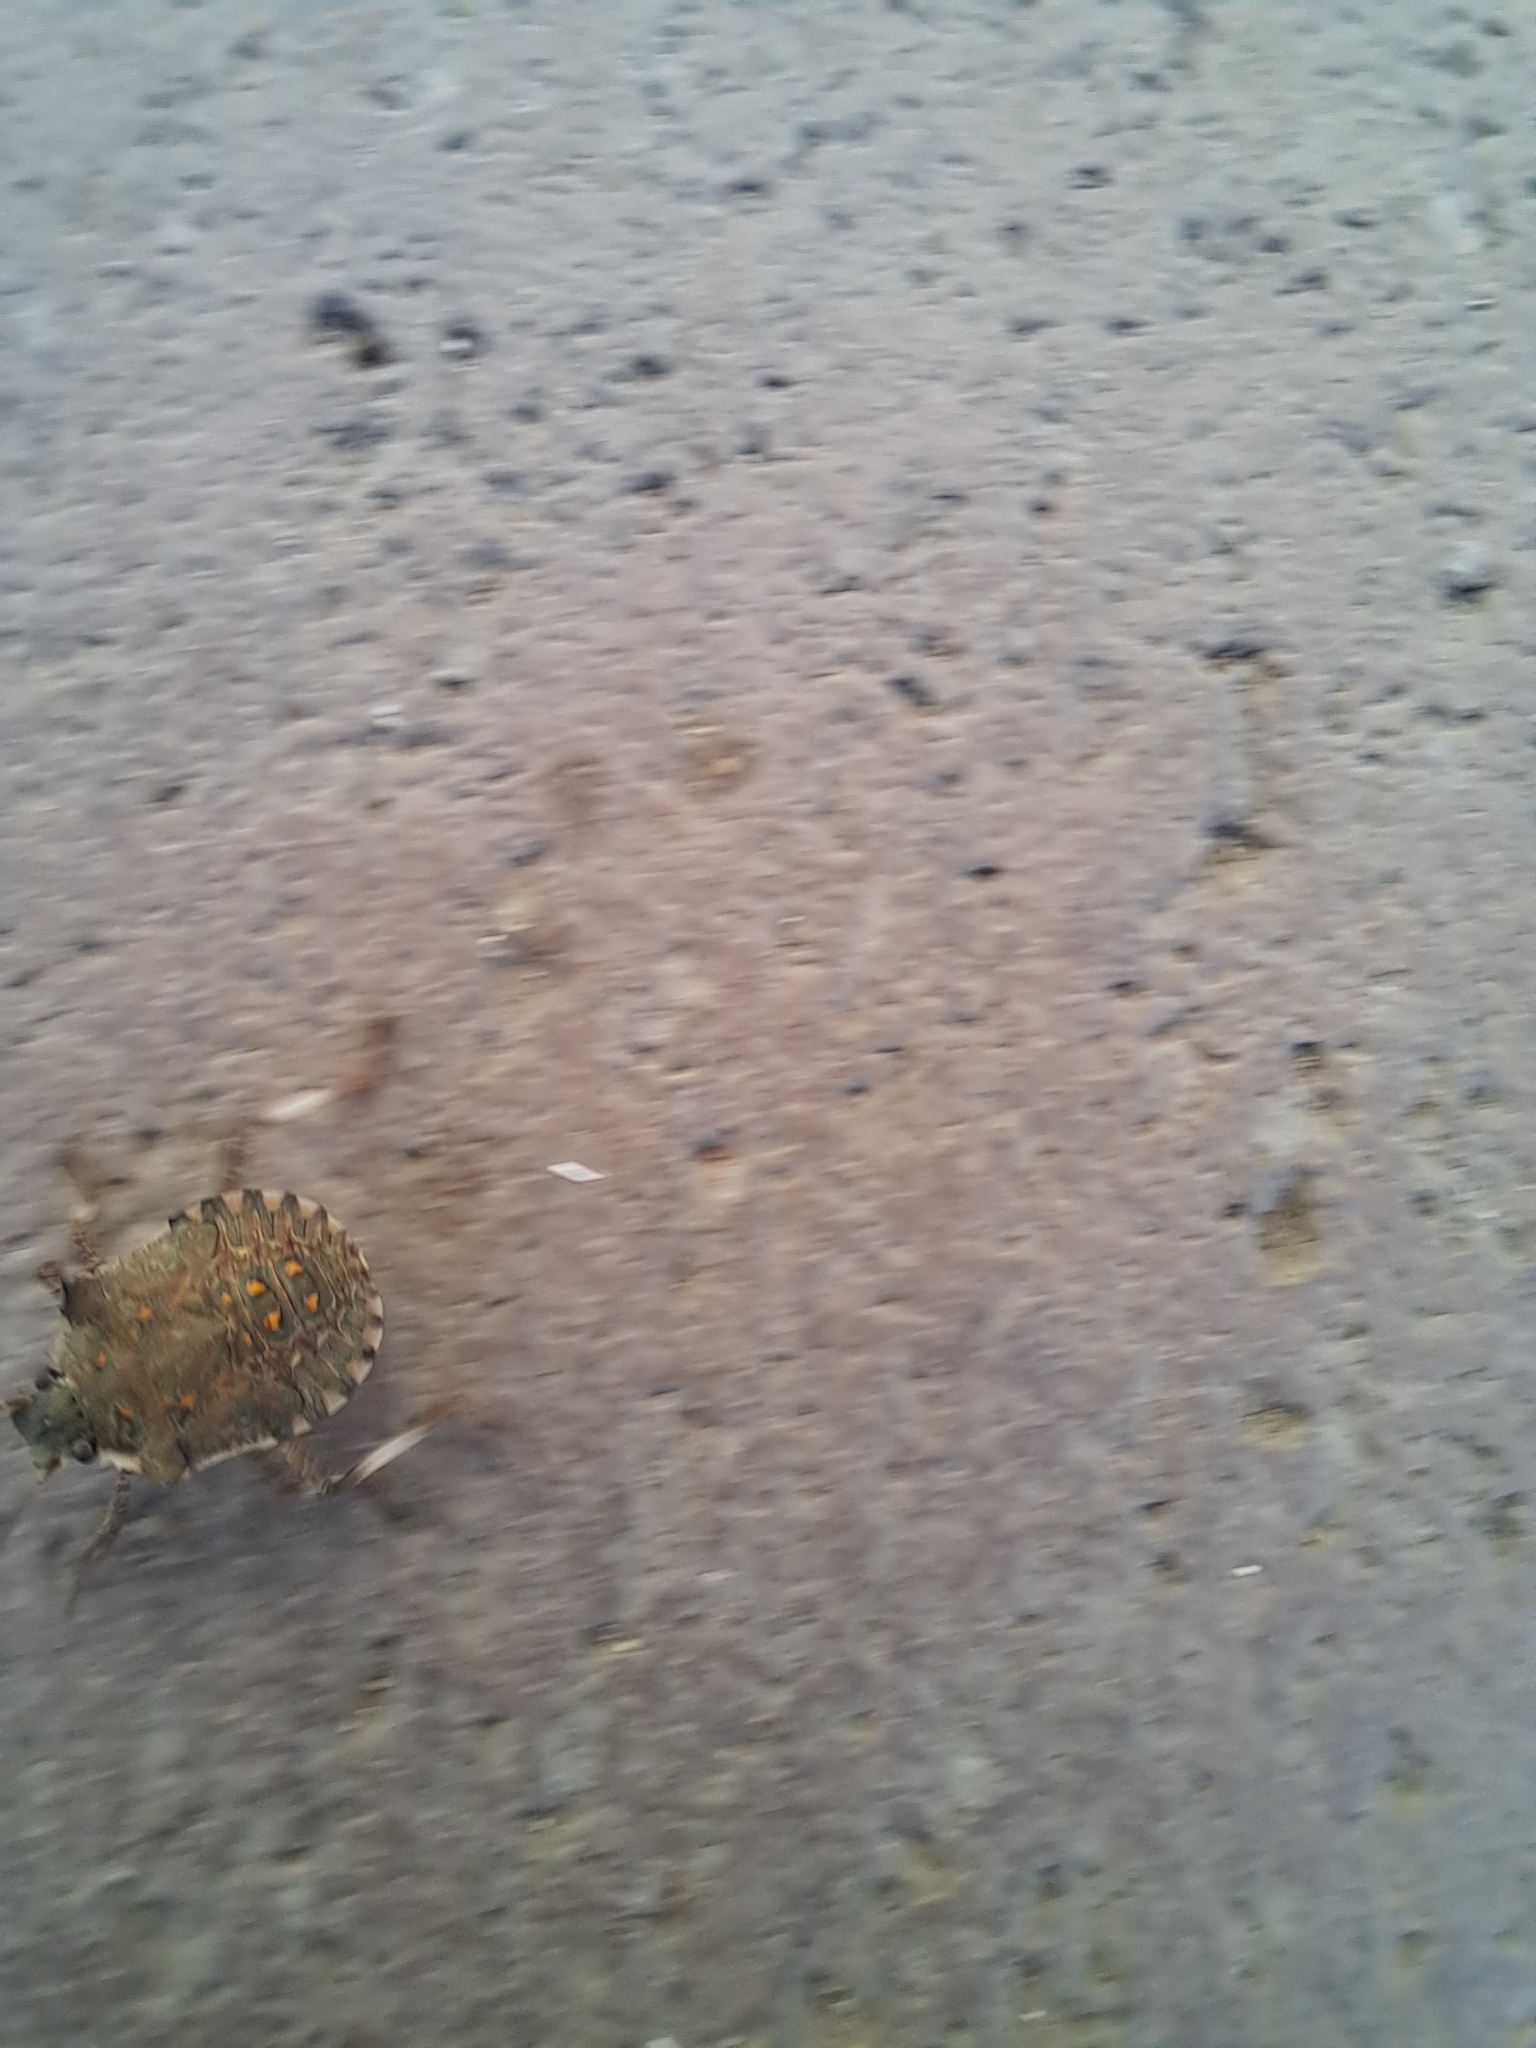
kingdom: Animalia
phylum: Arthropoda
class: Insecta
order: Hemiptera
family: Pentatomidae
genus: Halyomorpha
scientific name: Halyomorpha halys
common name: Brown marmorated stink bug
